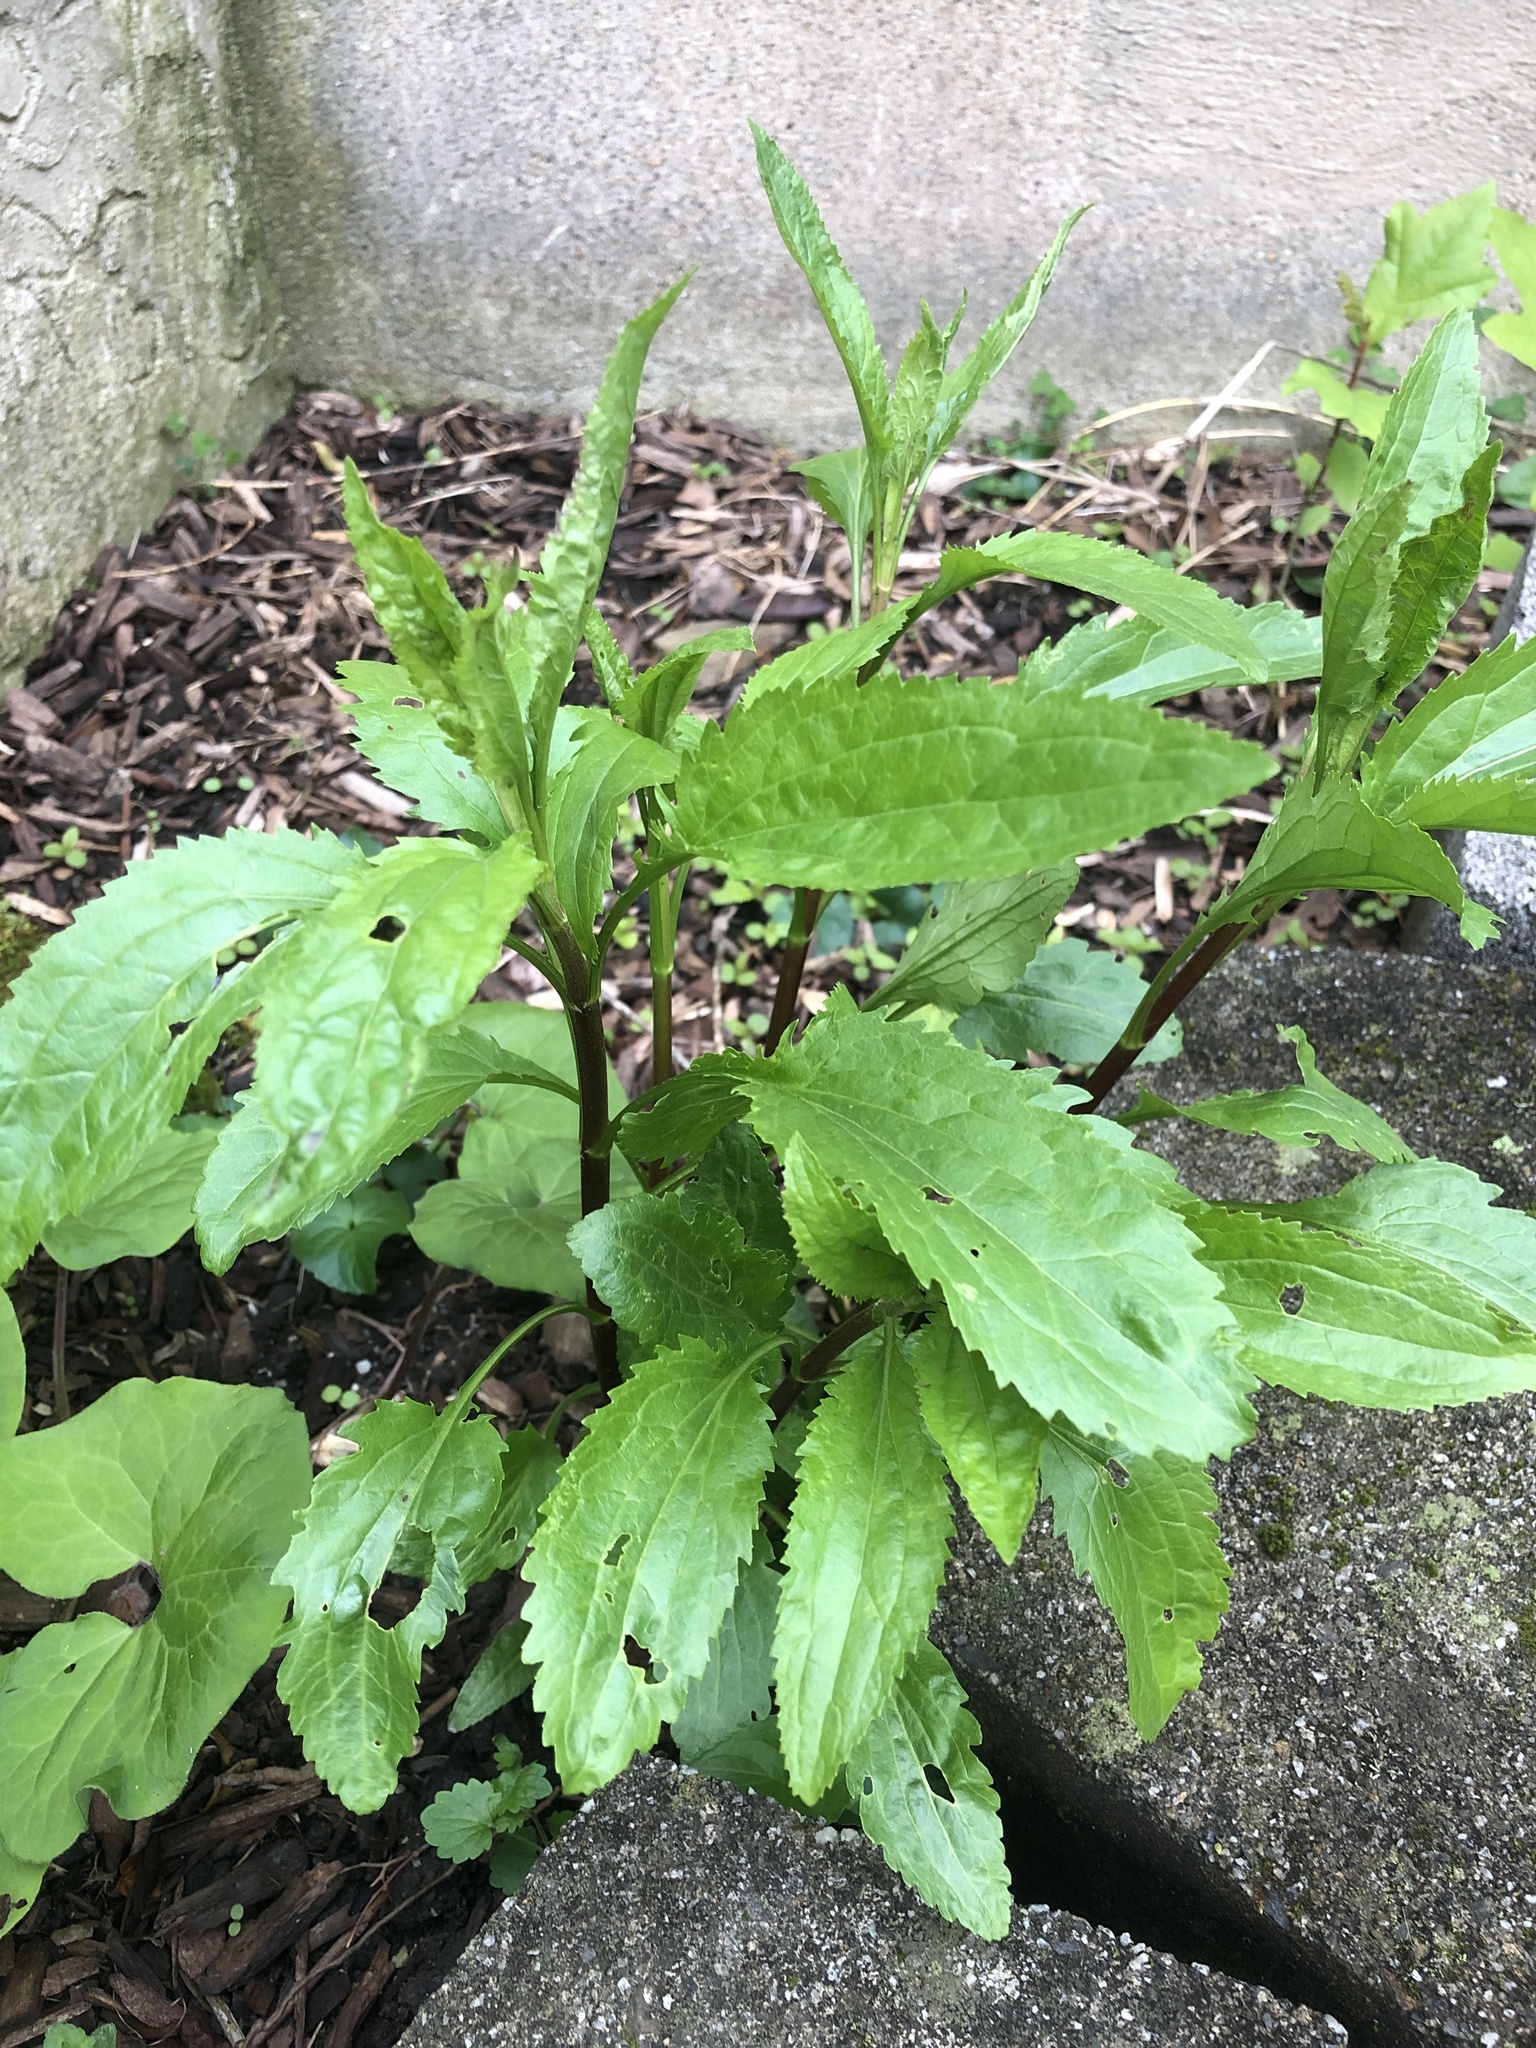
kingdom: Plantae
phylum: Tracheophyta
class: Magnoliopsida
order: Asterales
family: Asteraceae
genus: Eupatorium
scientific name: Eupatorium serotinum
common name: Late boneset
